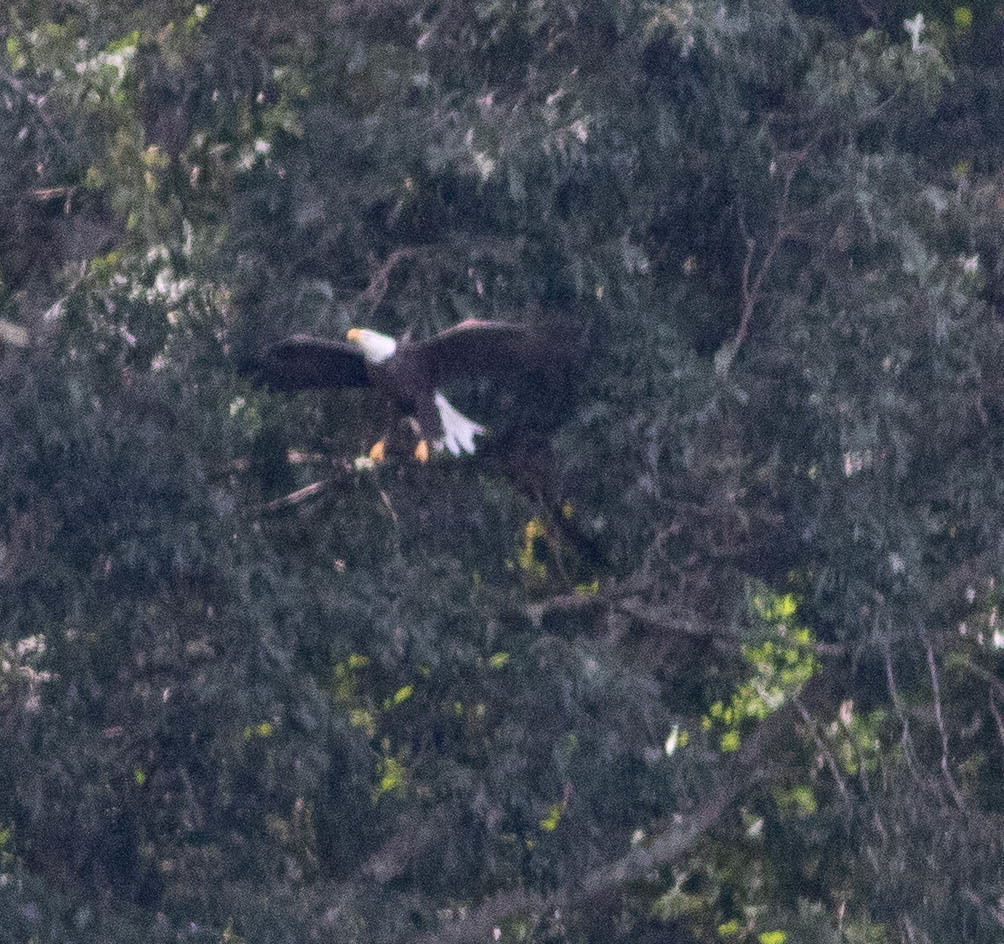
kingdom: Animalia
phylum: Chordata
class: Aves
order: Accipitriformes
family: Accipitridae
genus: Haliaeetus
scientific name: Haliaeetus leucocephalus
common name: Bald eagle
